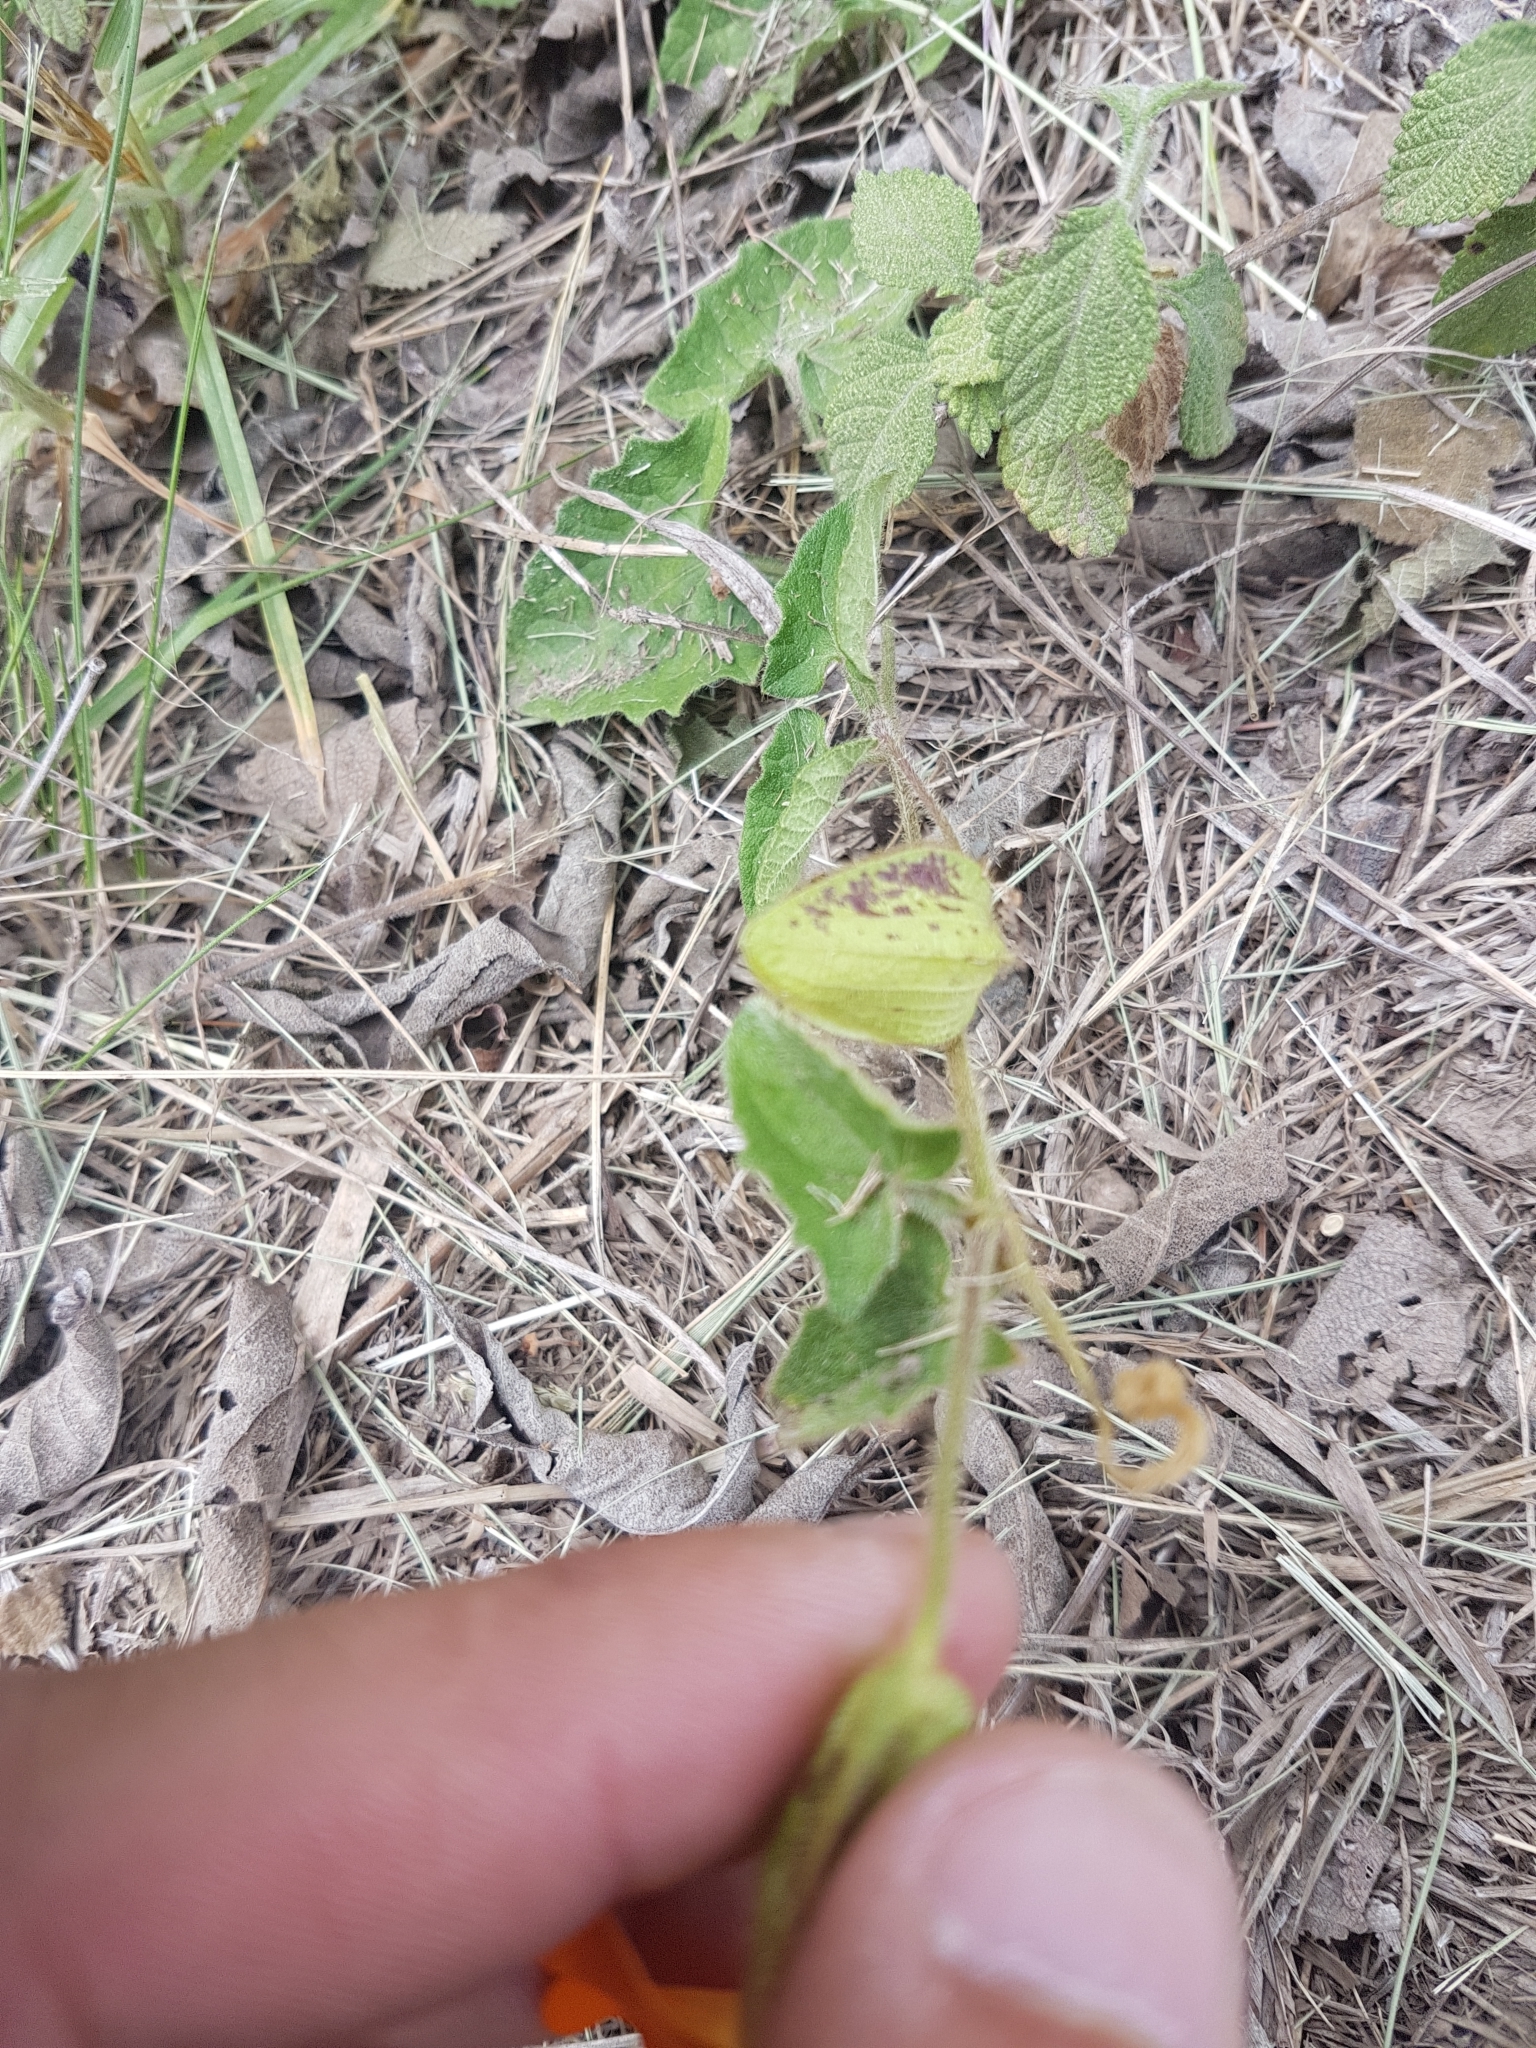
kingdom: Plantae
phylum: Tracheophyta
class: Magnoliopsida
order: Lamiales
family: Acanthaceae
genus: Thunbergia
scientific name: Thunbergia alata
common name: Blackeyed susan vine
